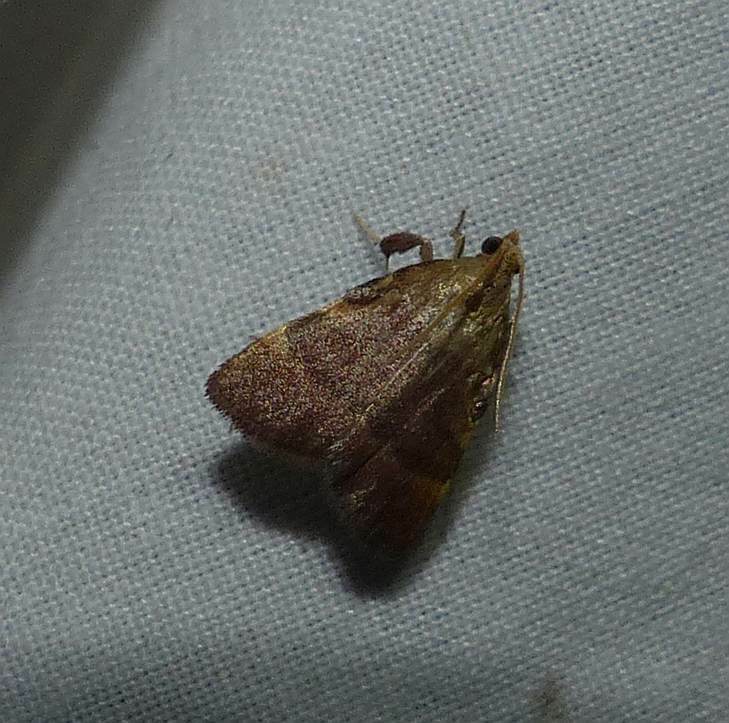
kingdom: Animalia
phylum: Arthropoda
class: Insecta
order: Lepidoptera
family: Pyralidae
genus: Condylolomia
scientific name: Condylolomia participialis
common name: Drab condylolomia moth
